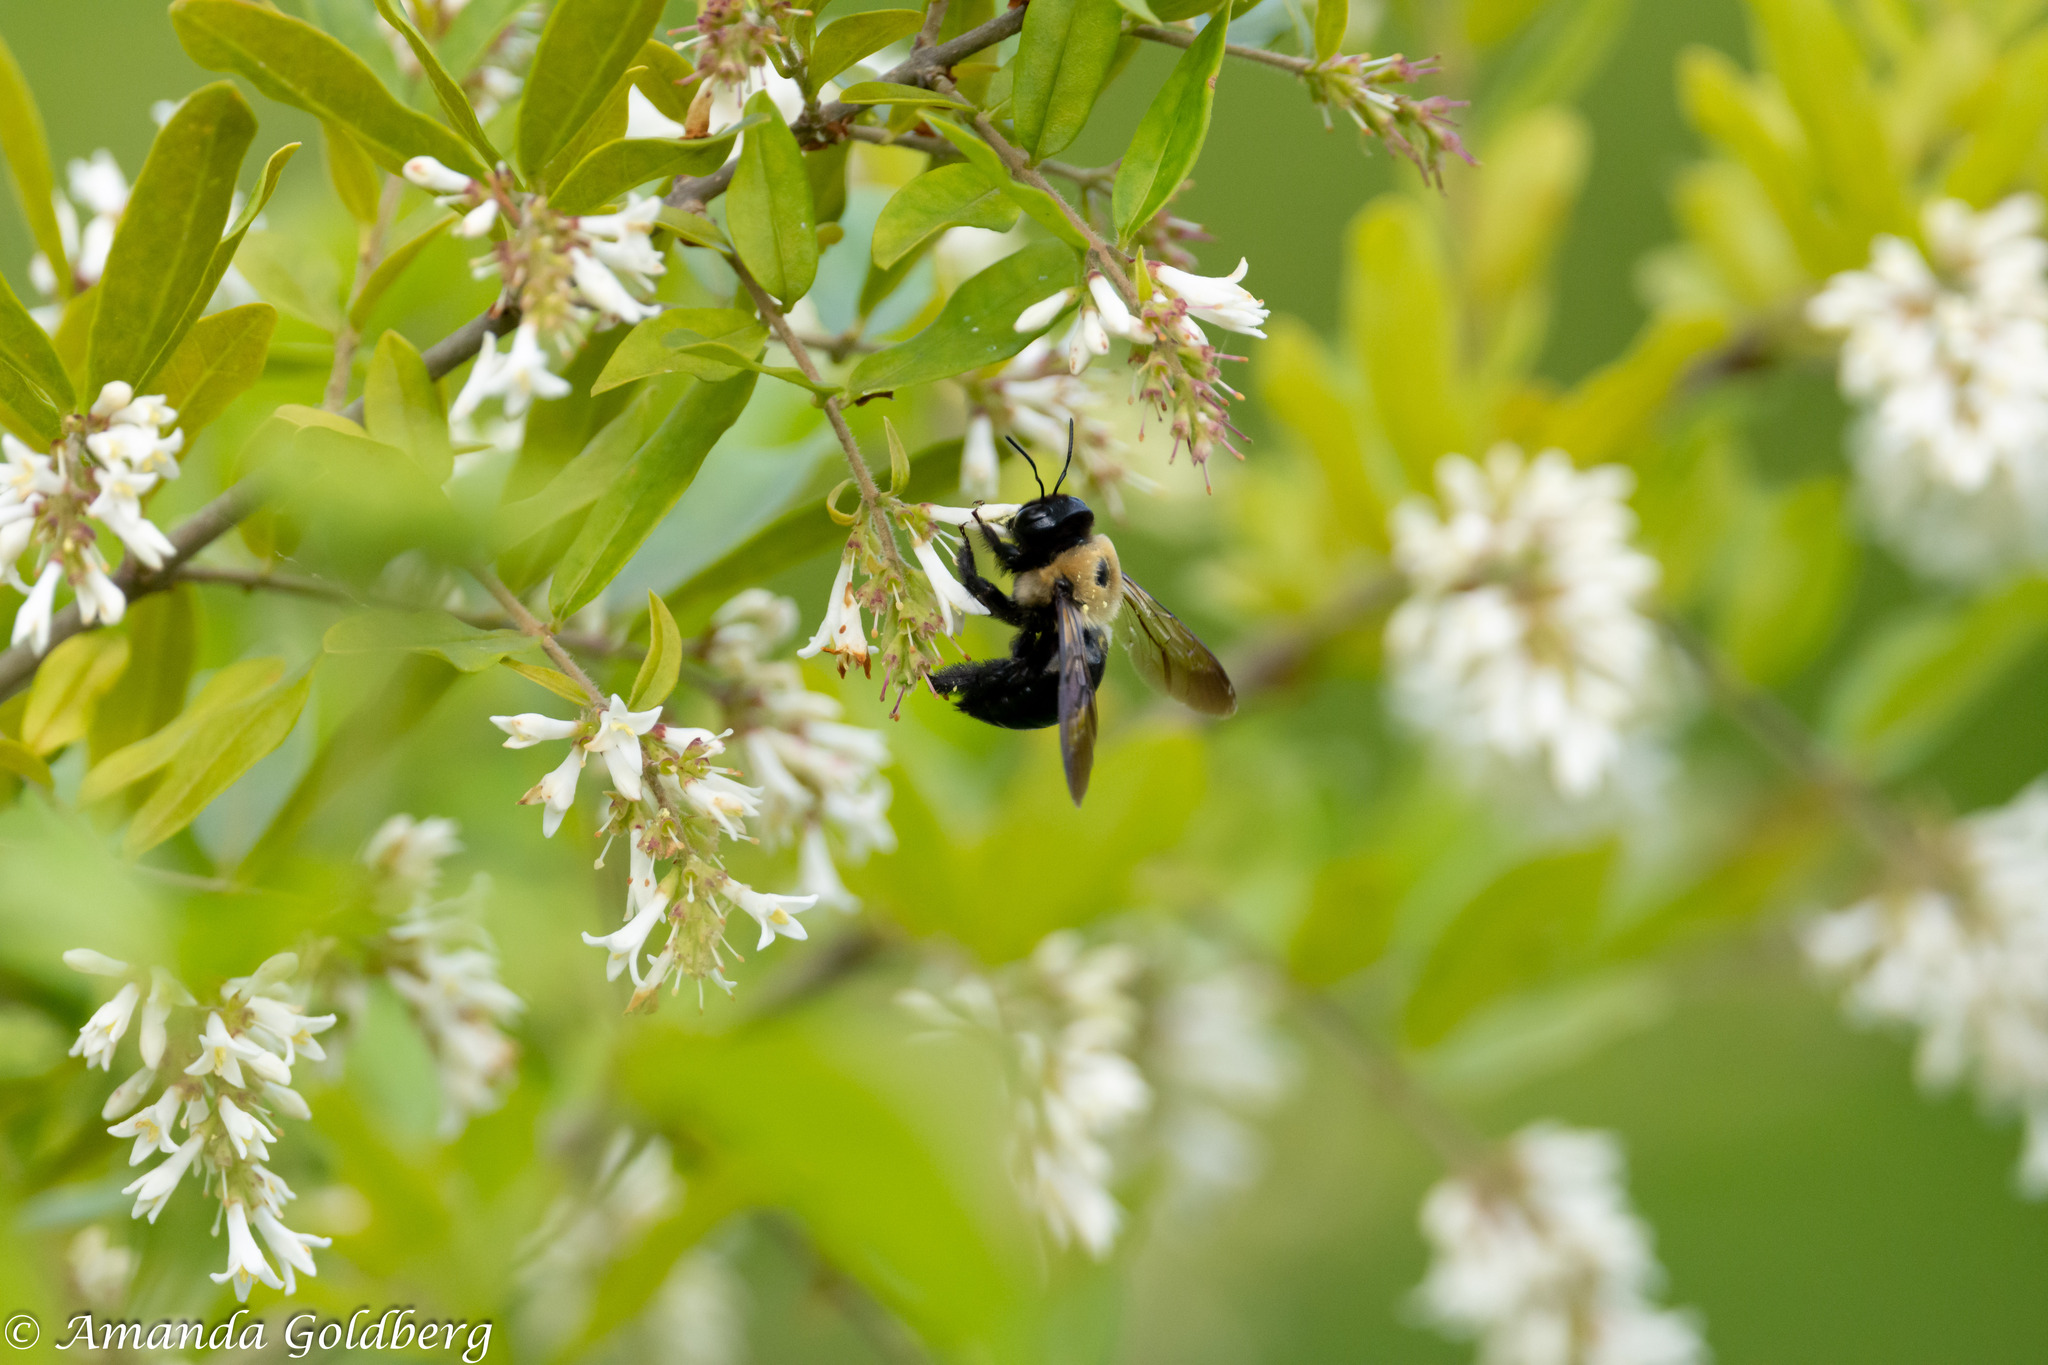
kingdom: Animalia
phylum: Arthropoda
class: Insecta
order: Hymenoptera
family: Apidae
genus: Xylocopa
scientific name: Xylocopa virginica
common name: Carpenter bee
